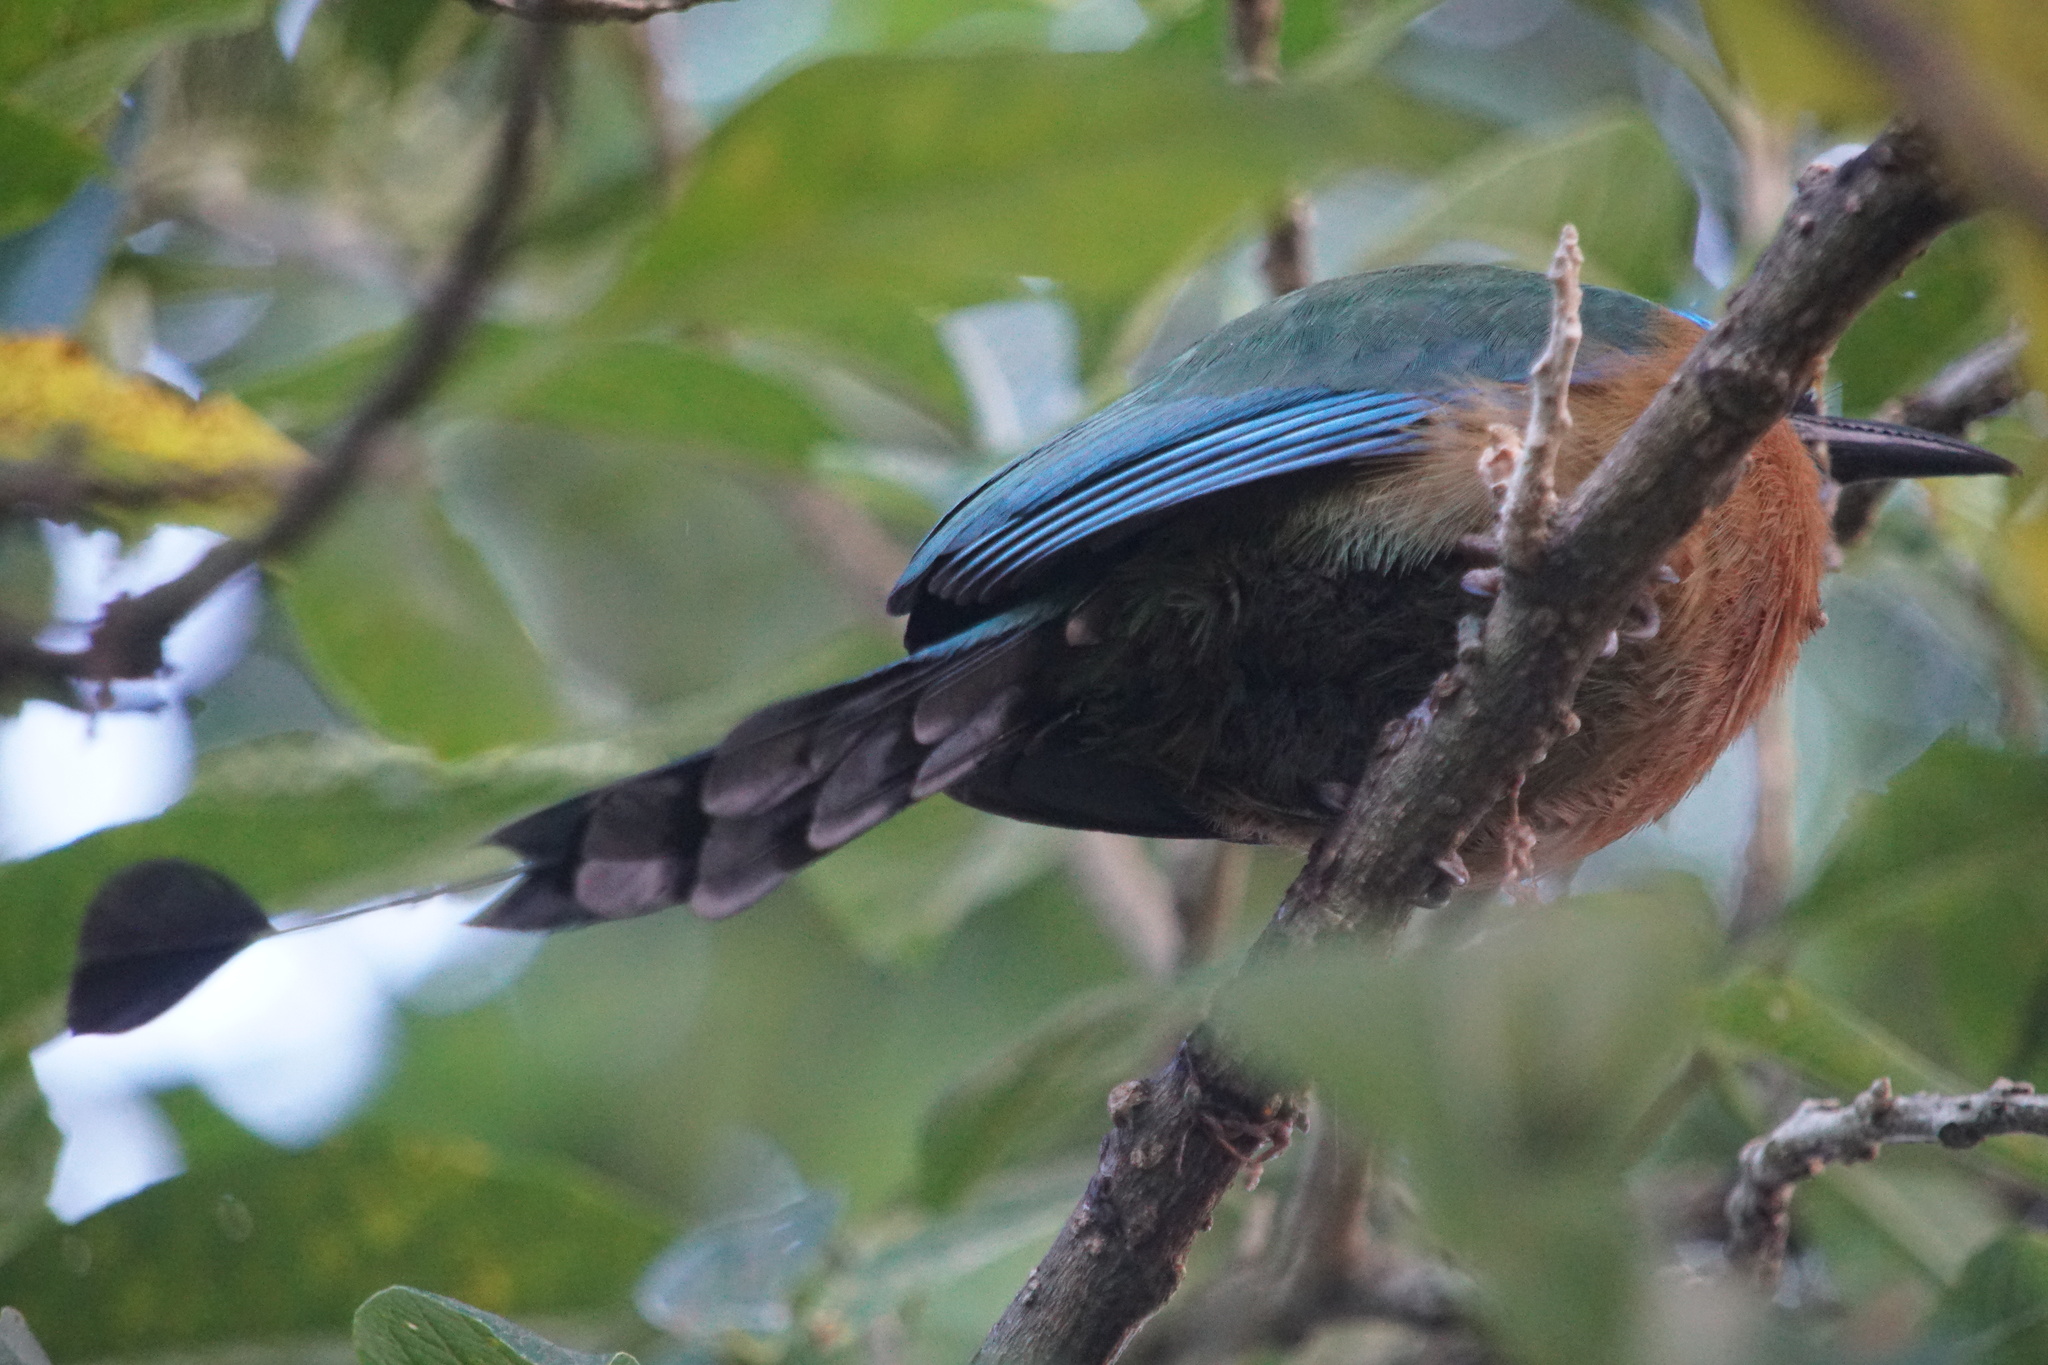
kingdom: Animalia
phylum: Chordata
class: Aves
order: Coraciiformes
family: Momotidae
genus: Momotus
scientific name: Momotus lessonii
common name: Lesson's motmot
